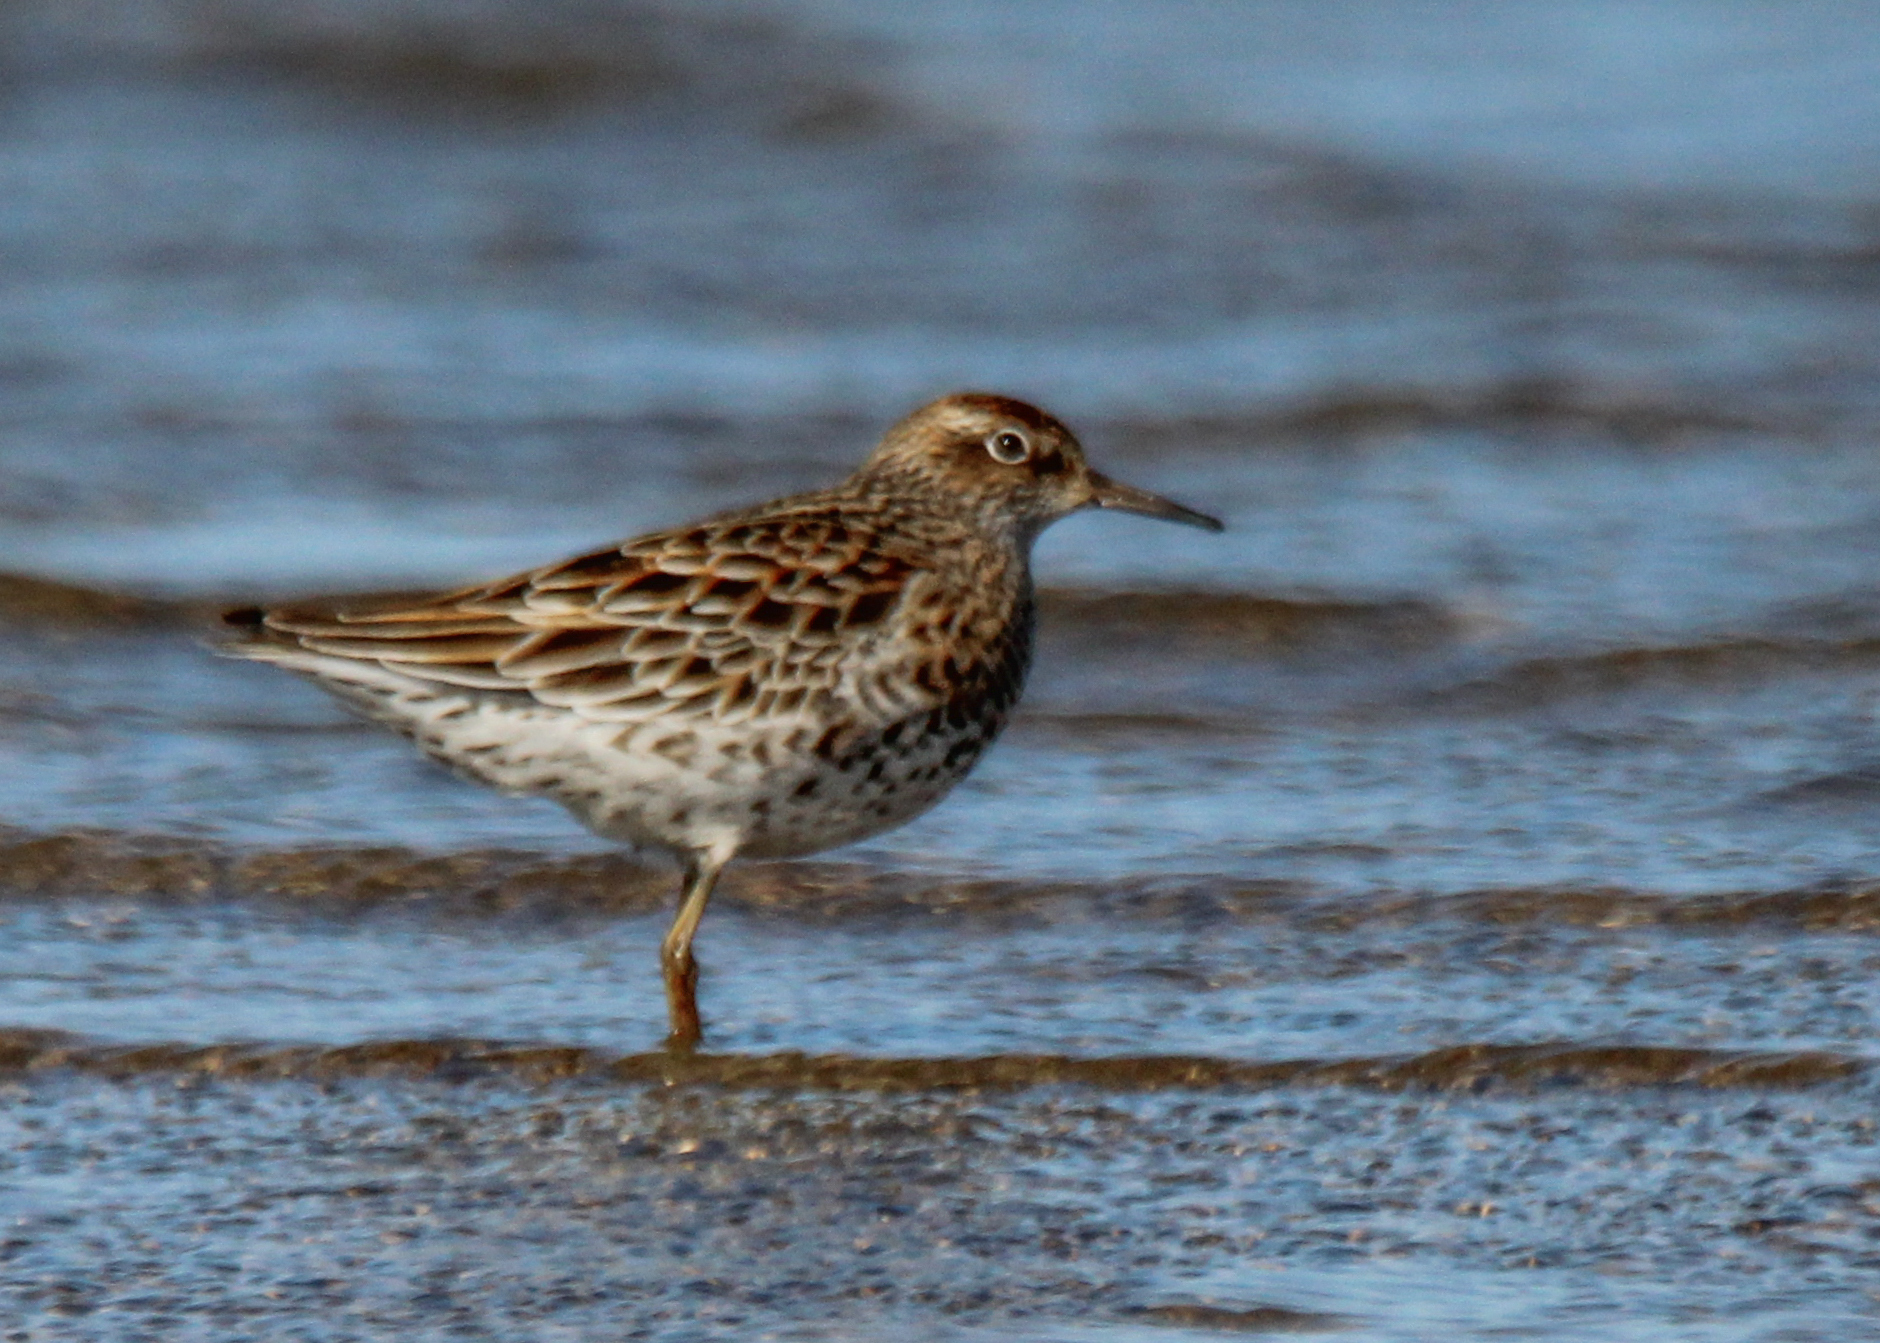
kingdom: Animalia
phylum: Chordata
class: Aves
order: Charadriiformes
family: Scolopacidae
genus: Calidris
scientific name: Calidris acuminata
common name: Sharp-tailed sandpiper
